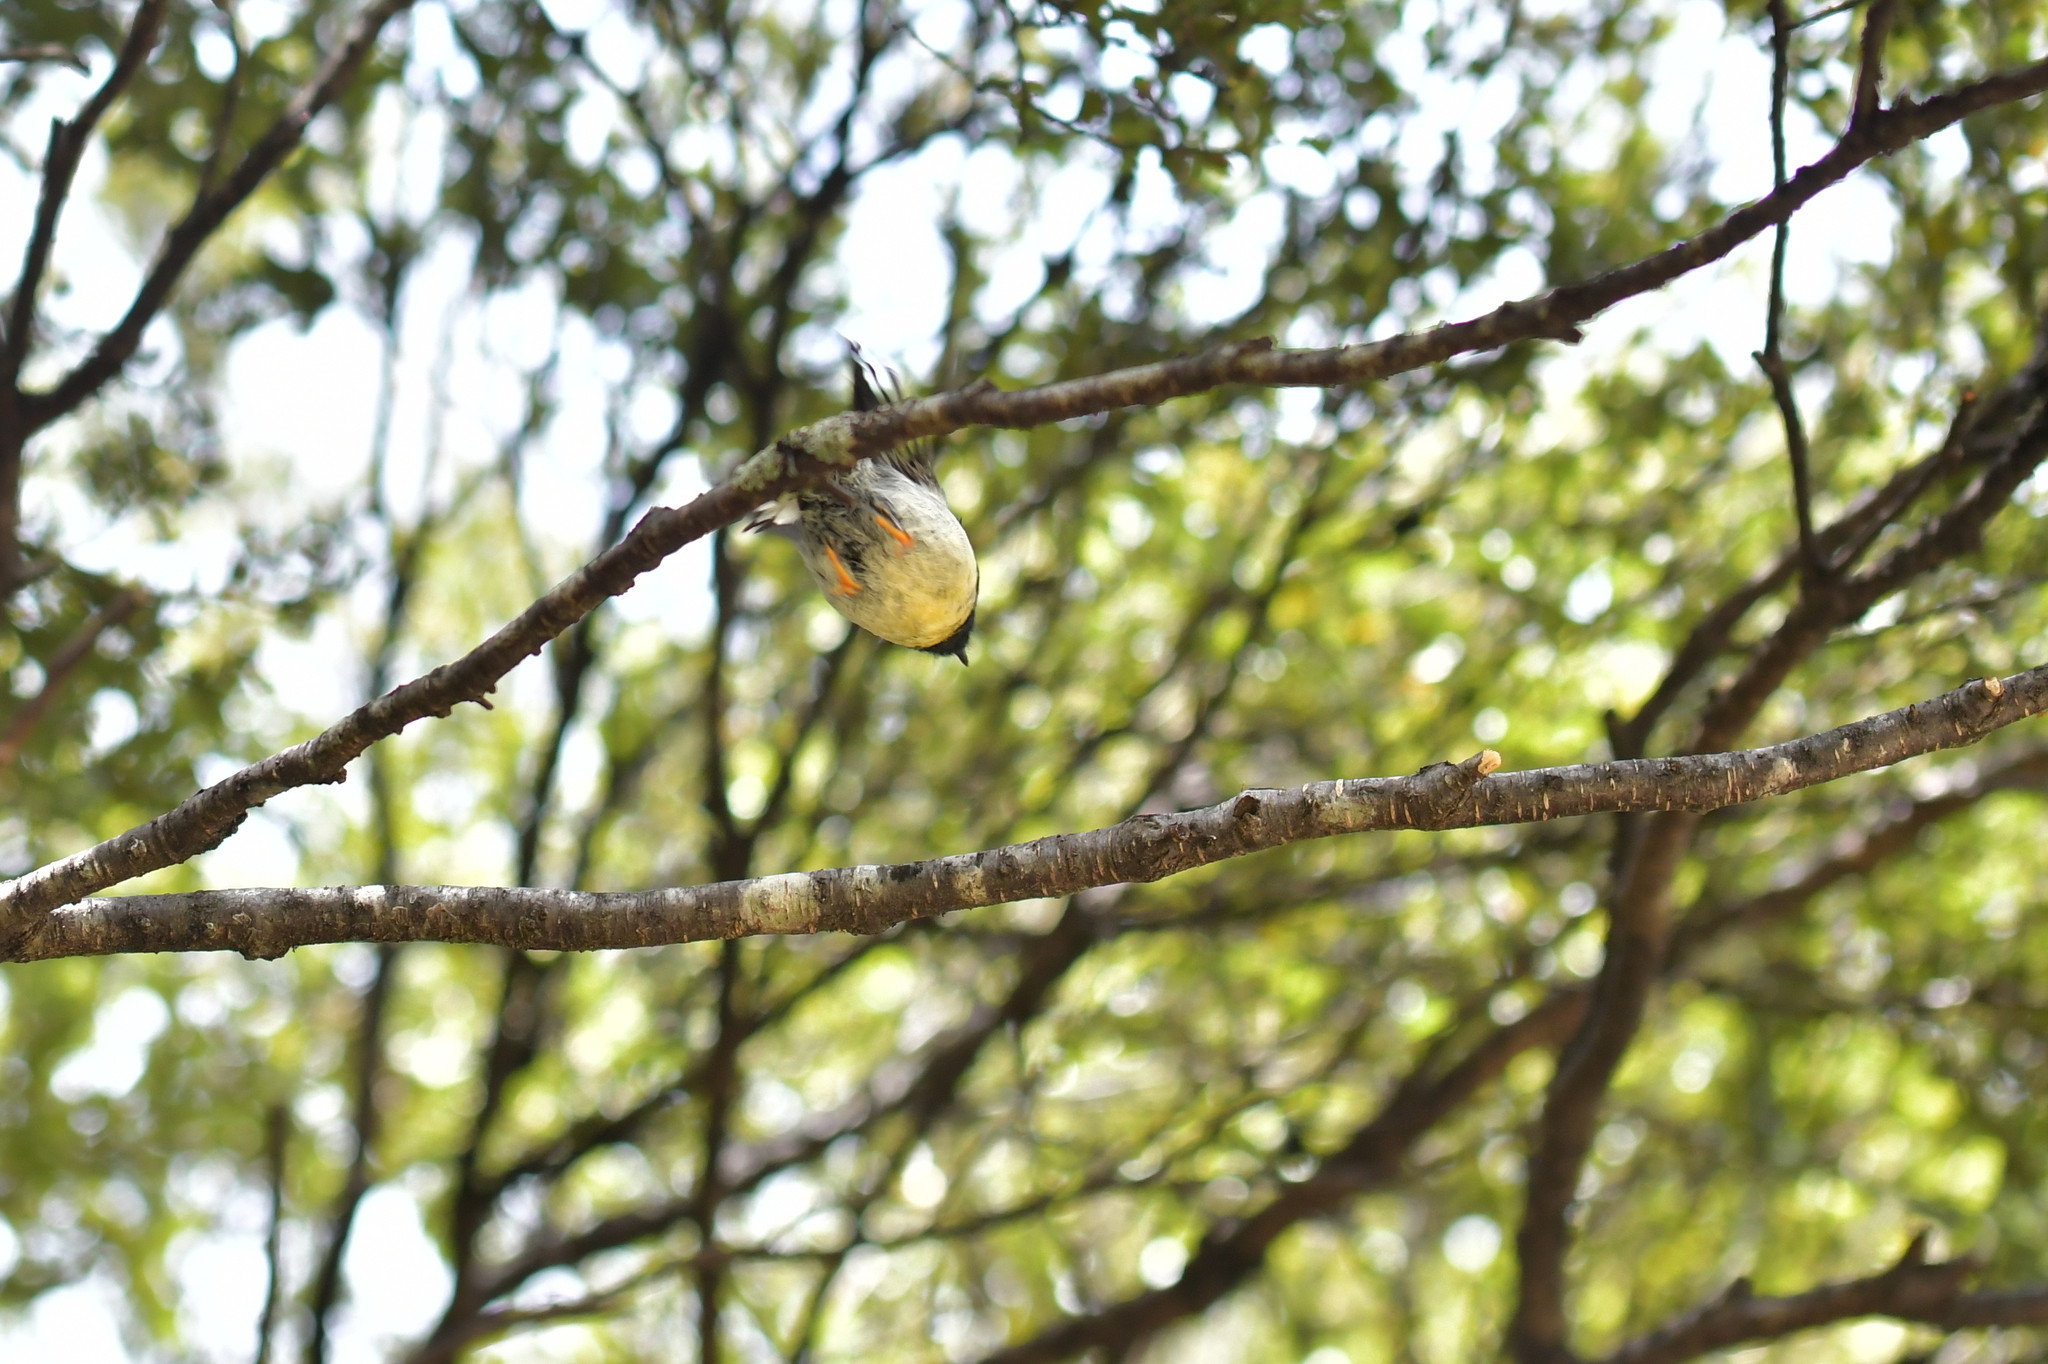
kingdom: Animalia
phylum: Chordata
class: Aves
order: Passeriformes
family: Petroicidae
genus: Petroica
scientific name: Petroica macrocephala
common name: Tomtit
